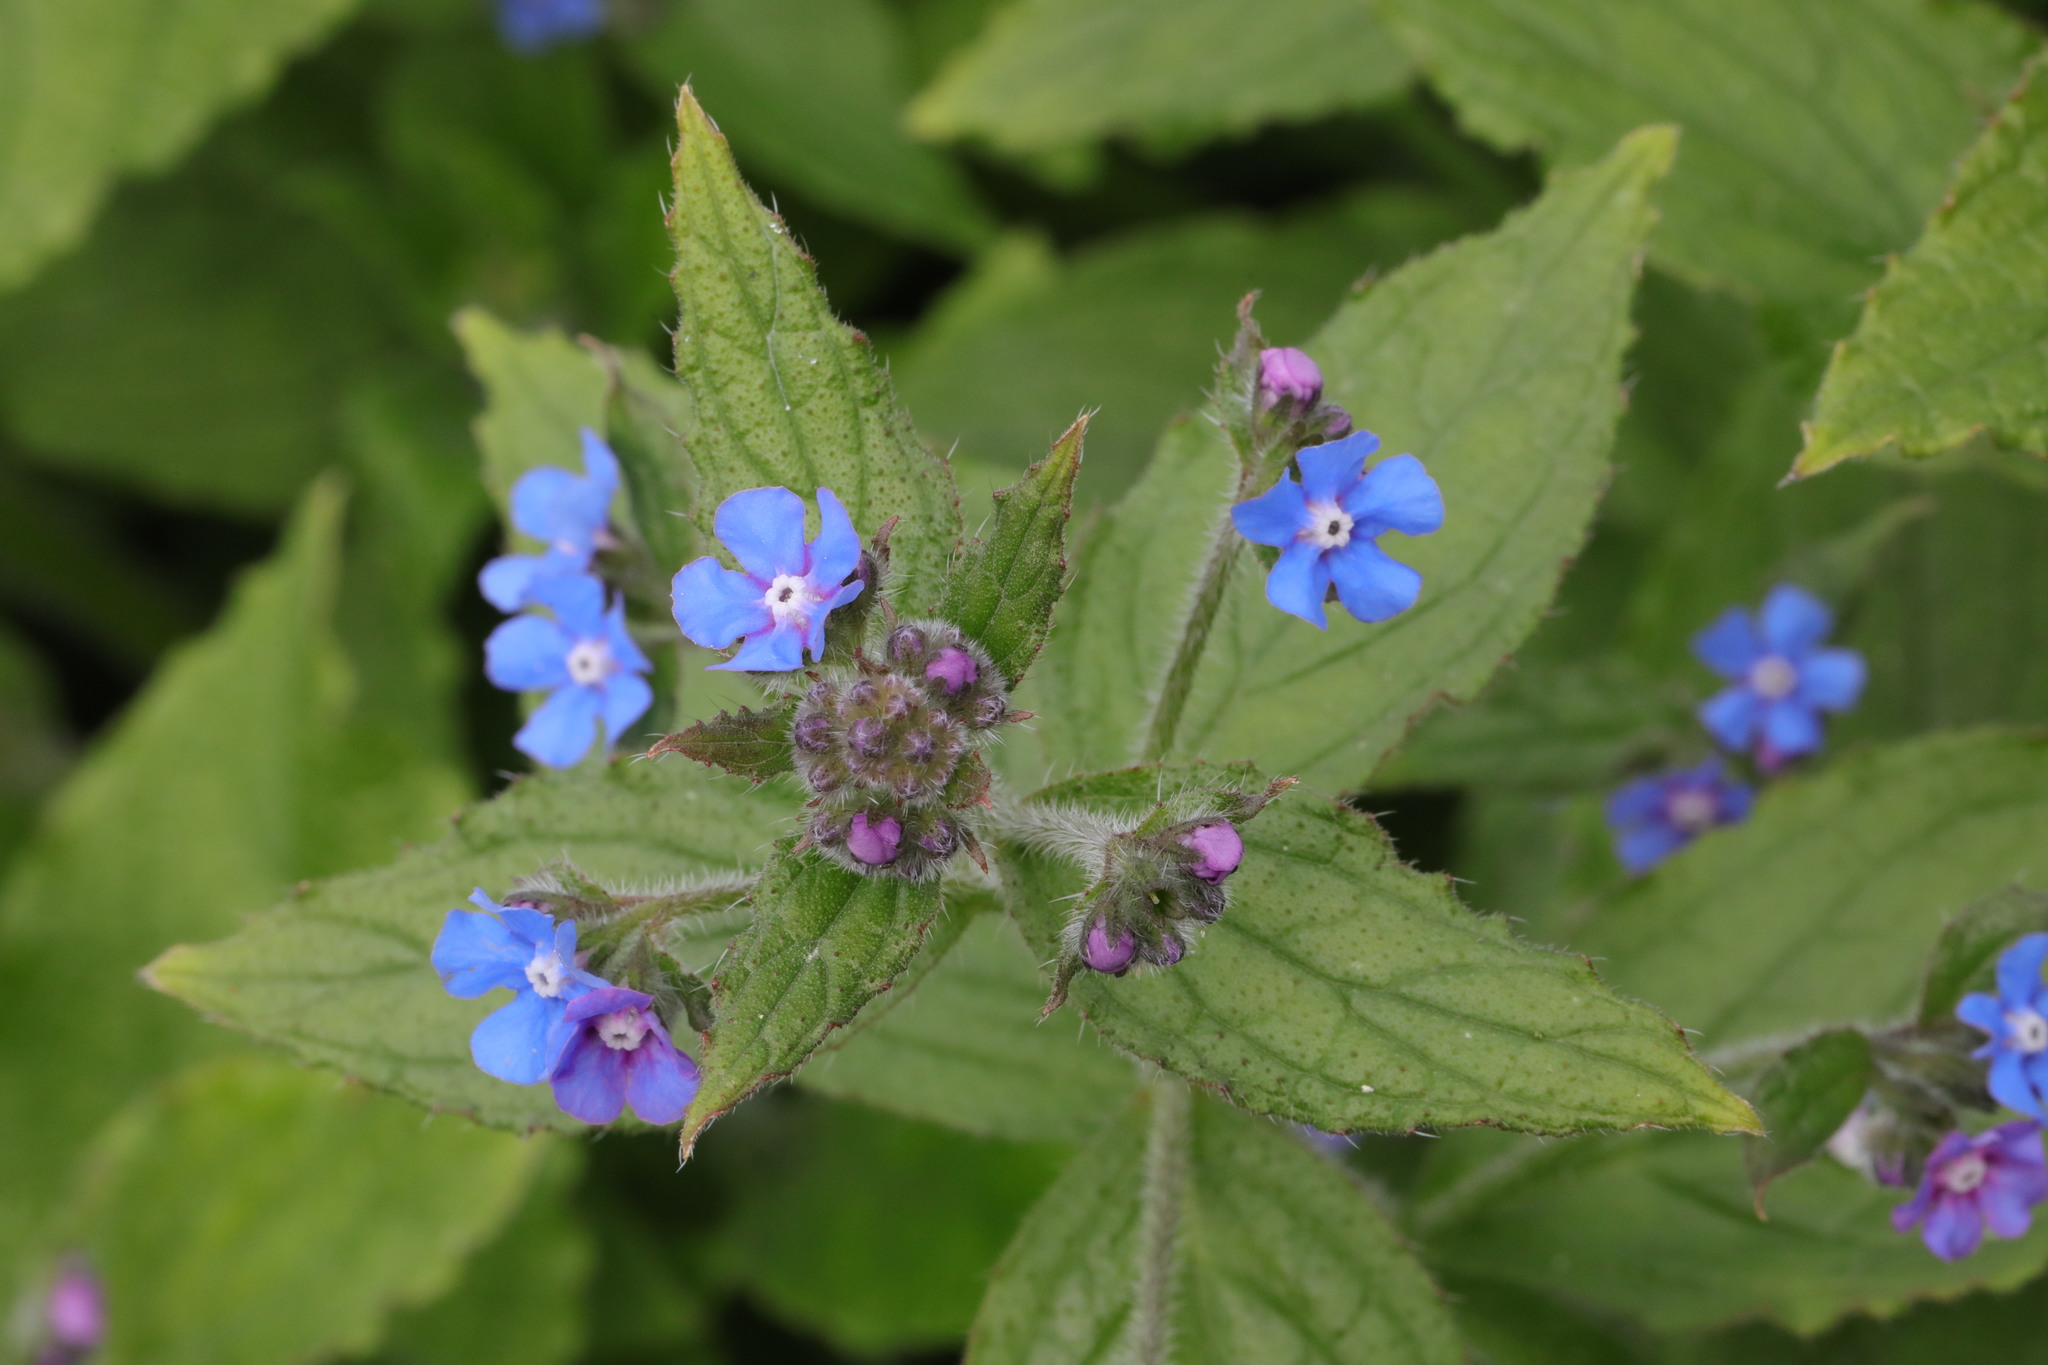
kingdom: Plantae
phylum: Tracheophyta
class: Magnoliopsida
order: Boraginales
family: Boraginaceae
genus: Pentaglottis
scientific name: Pentaglottis sempervirens
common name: Green alkanet
